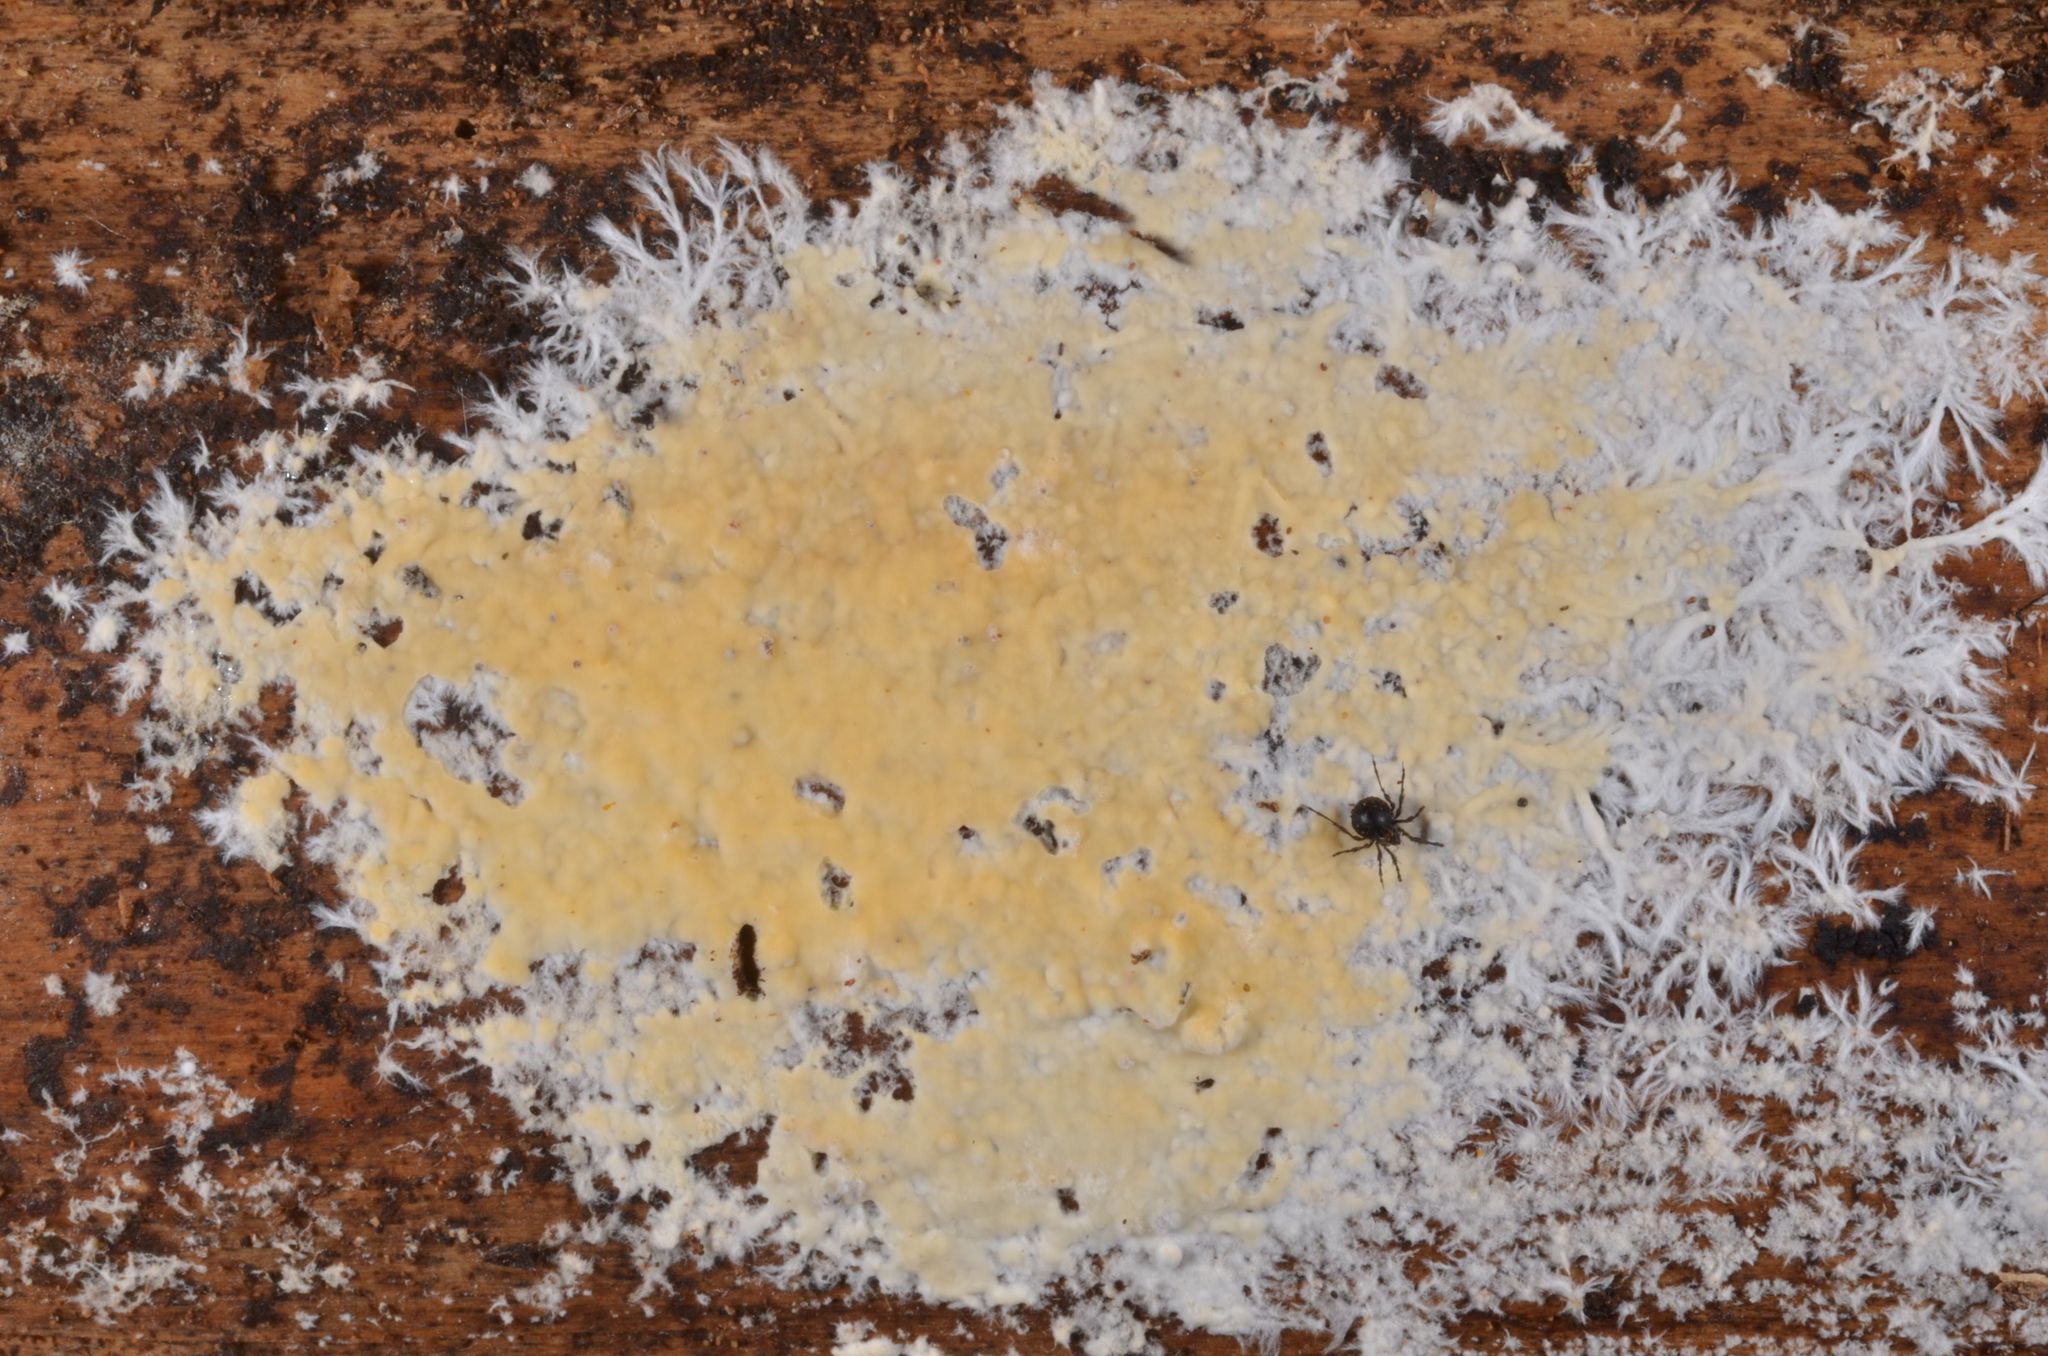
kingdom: Fungi
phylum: Basidiomycota
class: Agaricomycetes
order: Russulales
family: Peniophoraceae
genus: Gloiothele
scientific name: Gloiothele citrina
